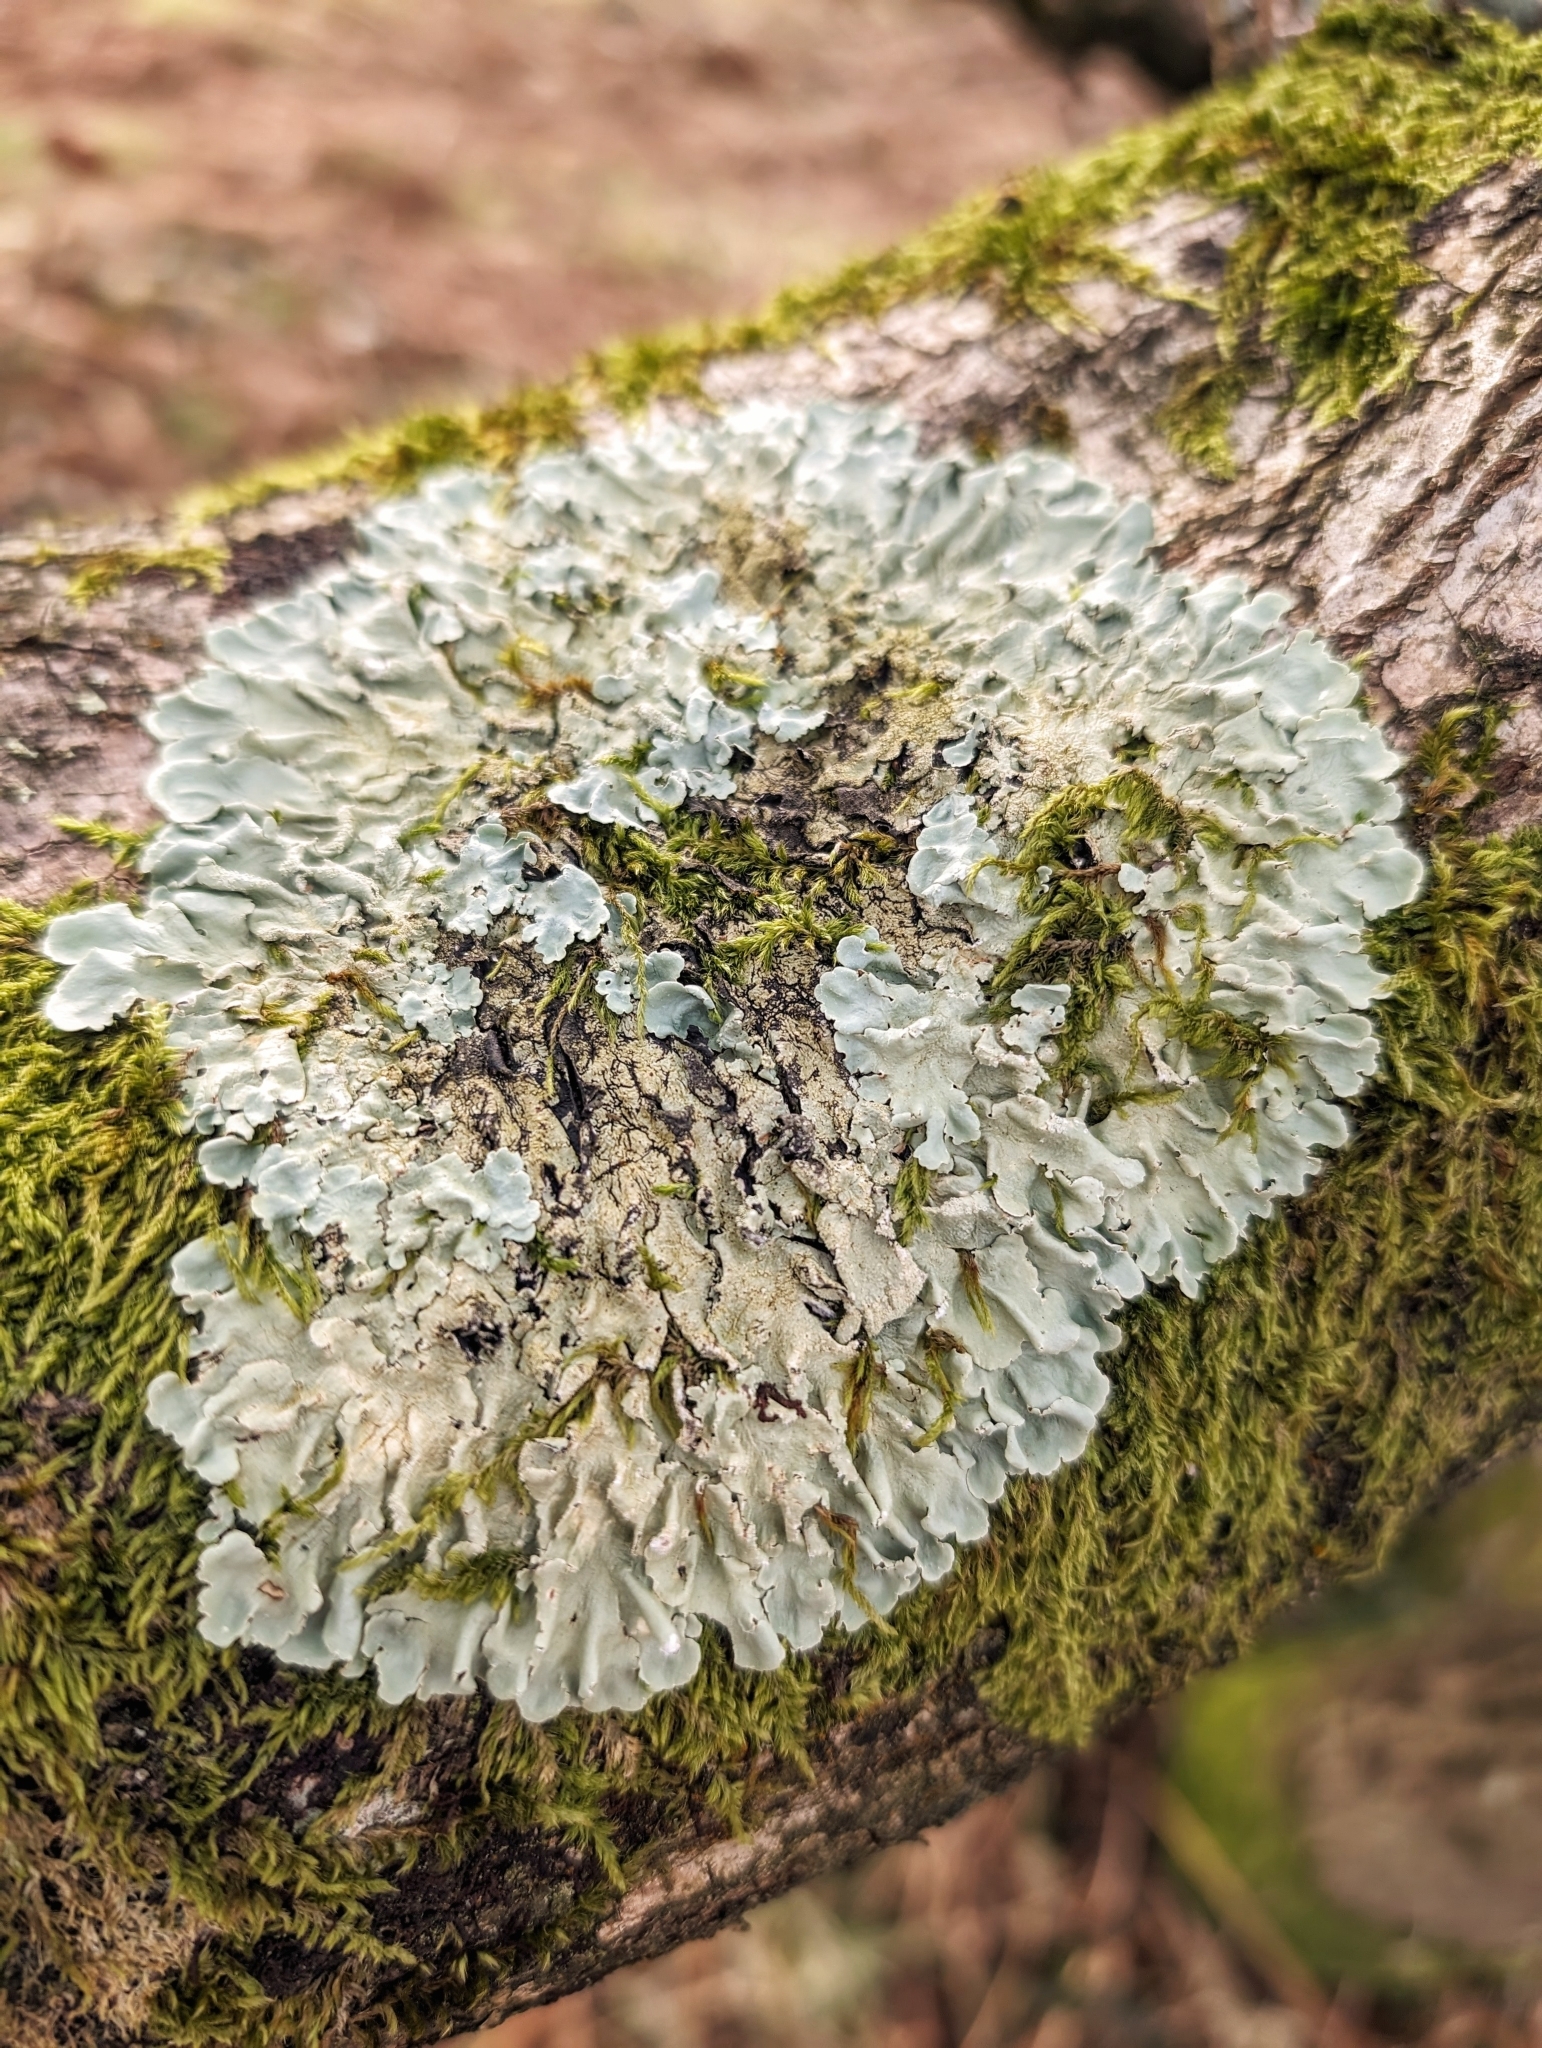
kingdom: Fungi
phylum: Ascomycota
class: Lecanoromycetes
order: Lecanorales
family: Parmeliaceae
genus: Flavoparmelia
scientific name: Flavoparmelia caperata
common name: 40-mile per hour lichen
